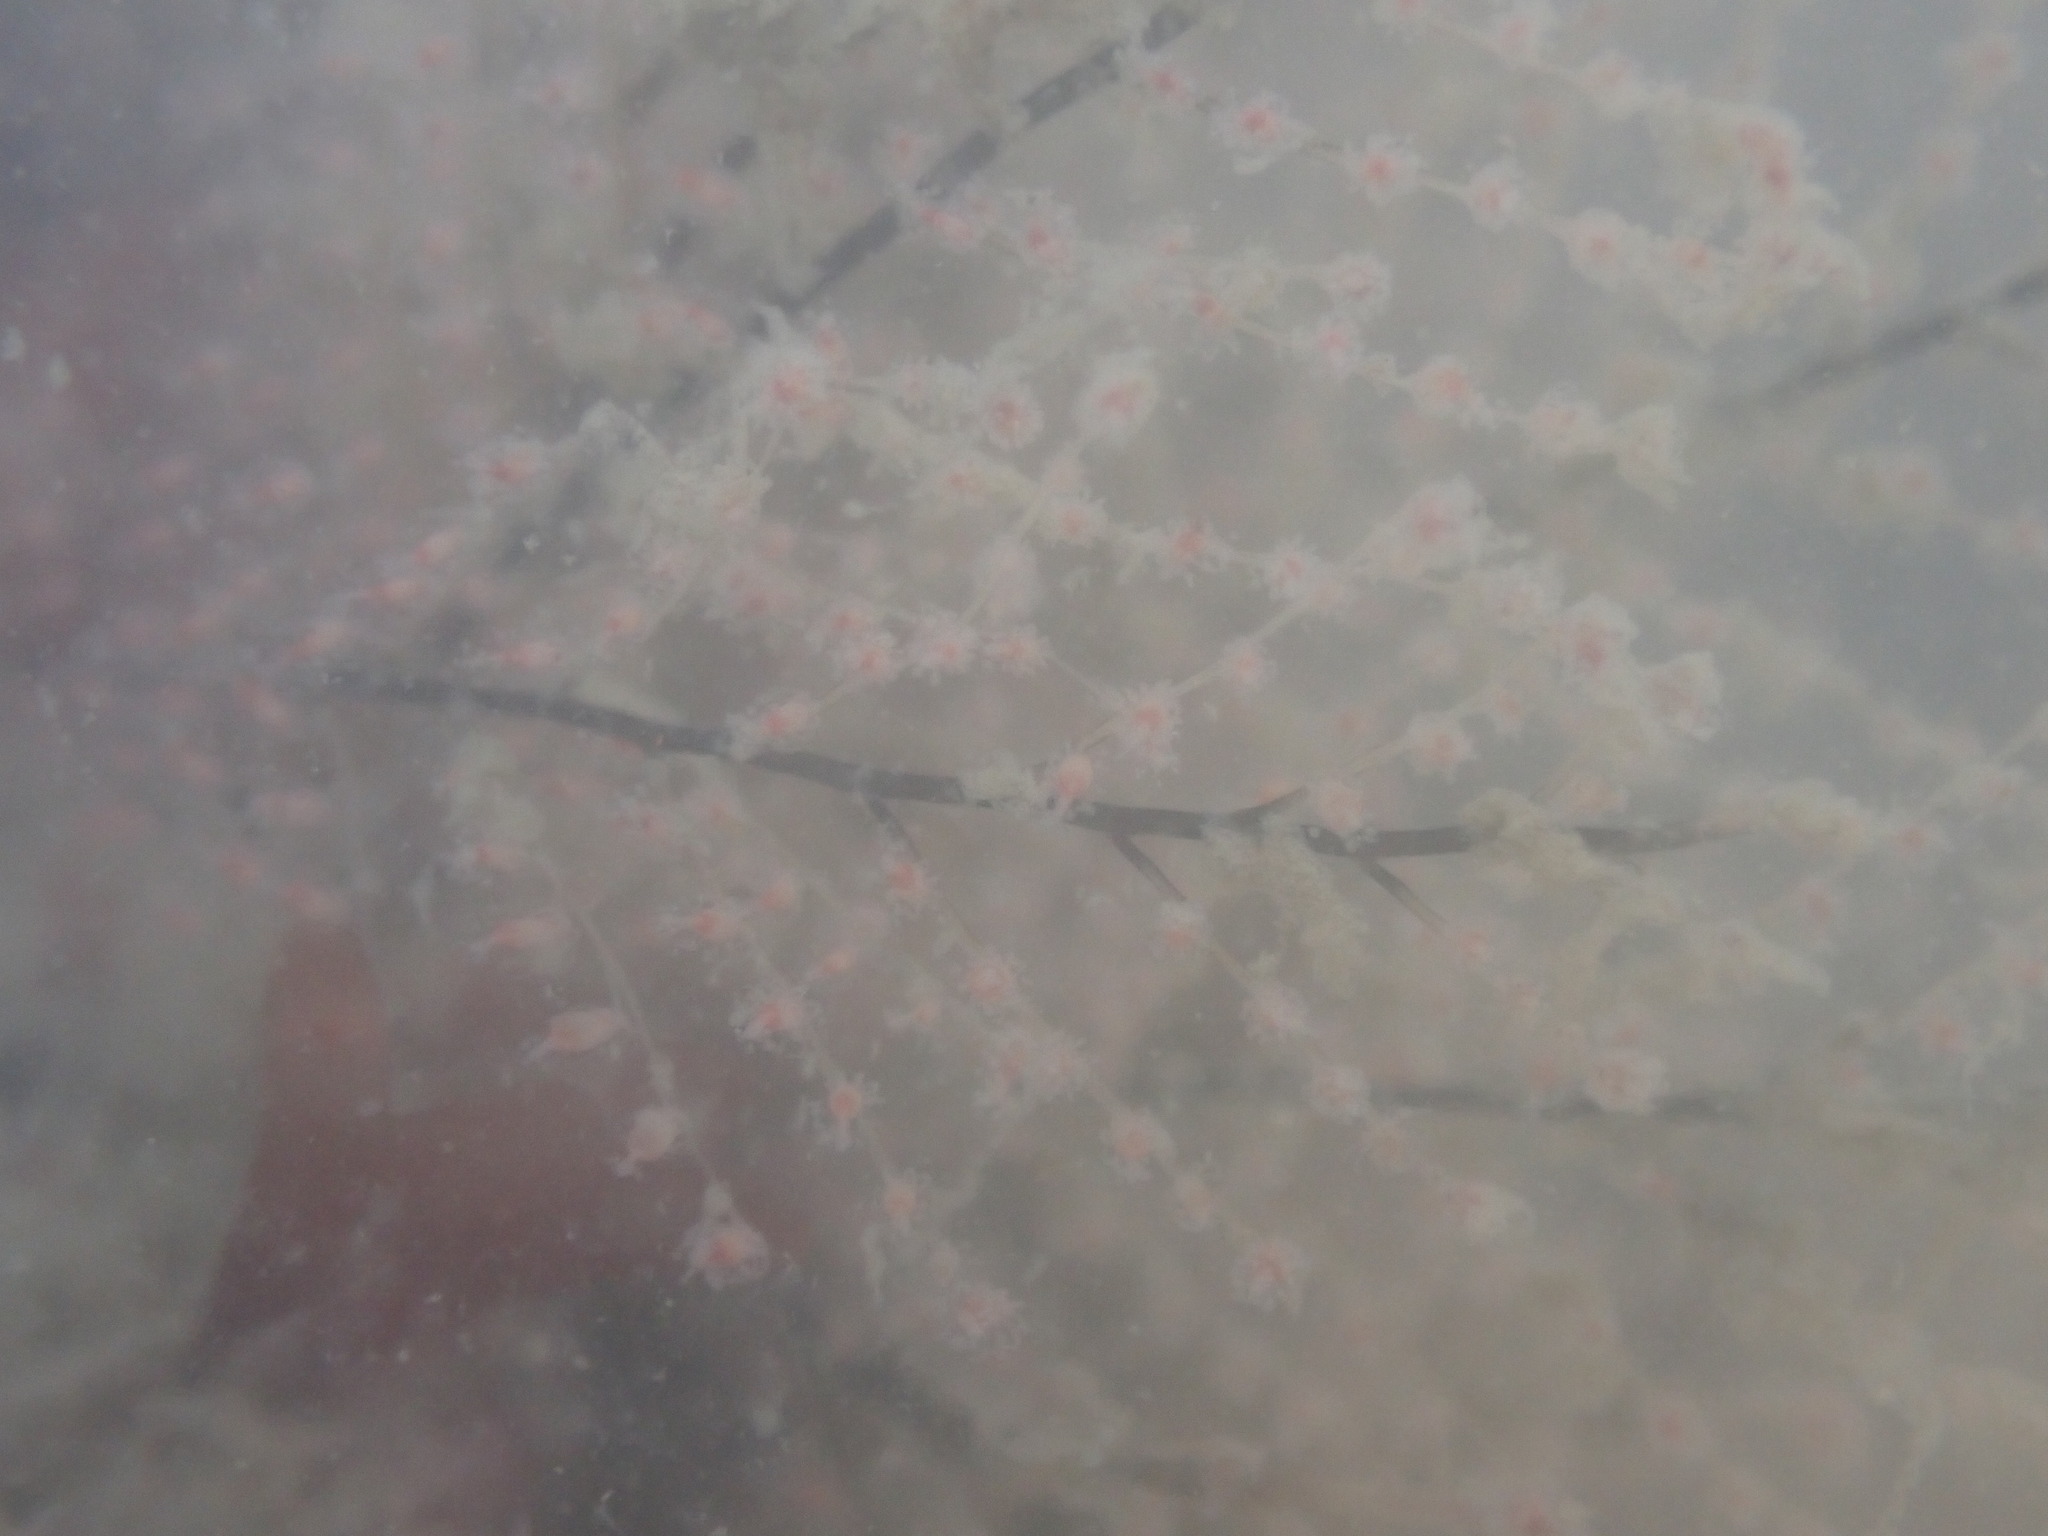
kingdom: Animalia
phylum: Cnidaria
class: Hydrozoa
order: Anthoathecata
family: Pennariidae
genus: Pennaria
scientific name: Pennaria disticha
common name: Feather hydroid
